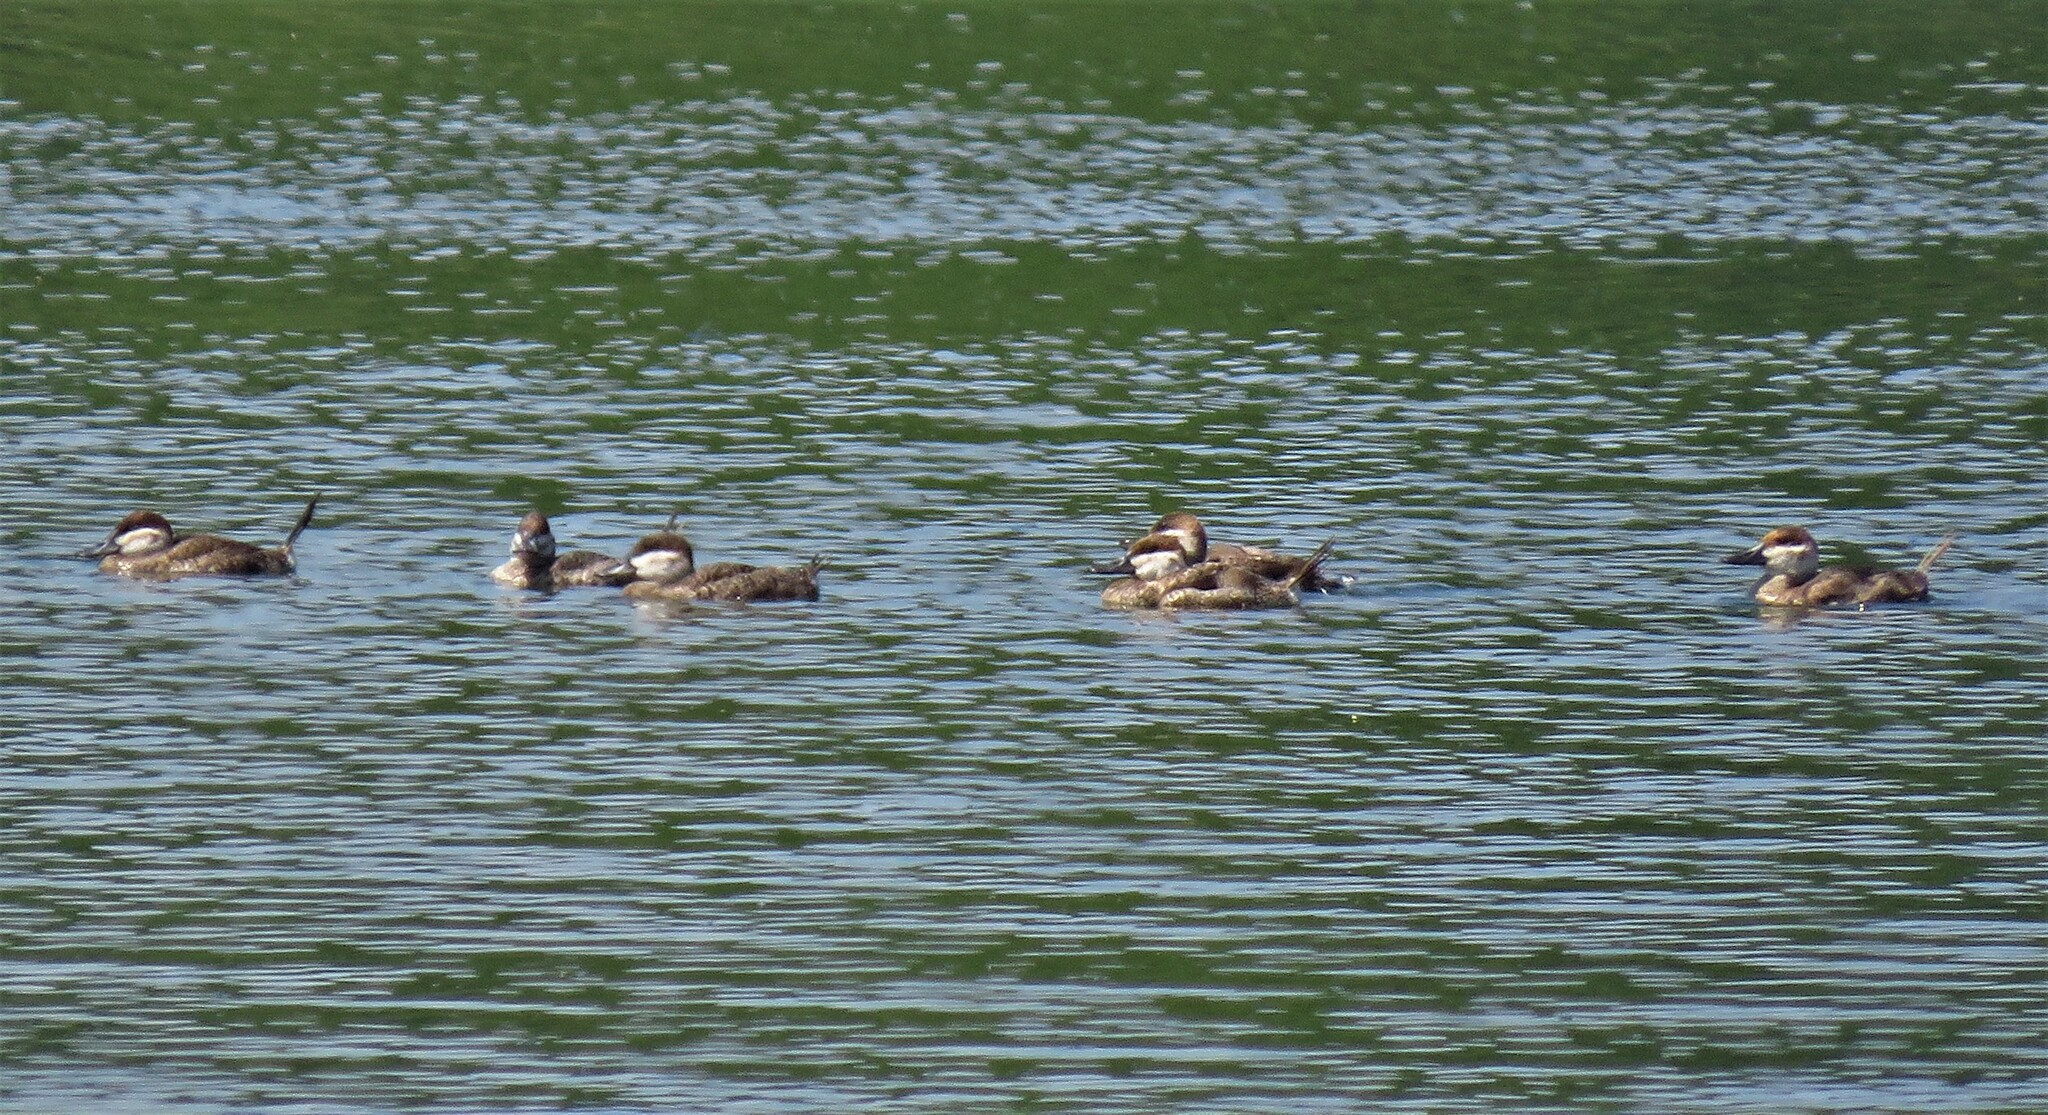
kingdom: Animalia
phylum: Chordata
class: Aves
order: Anseriformes
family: Anatidae
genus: Oxyura
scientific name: Oxyura jamaicensis
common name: Ruddy duck
